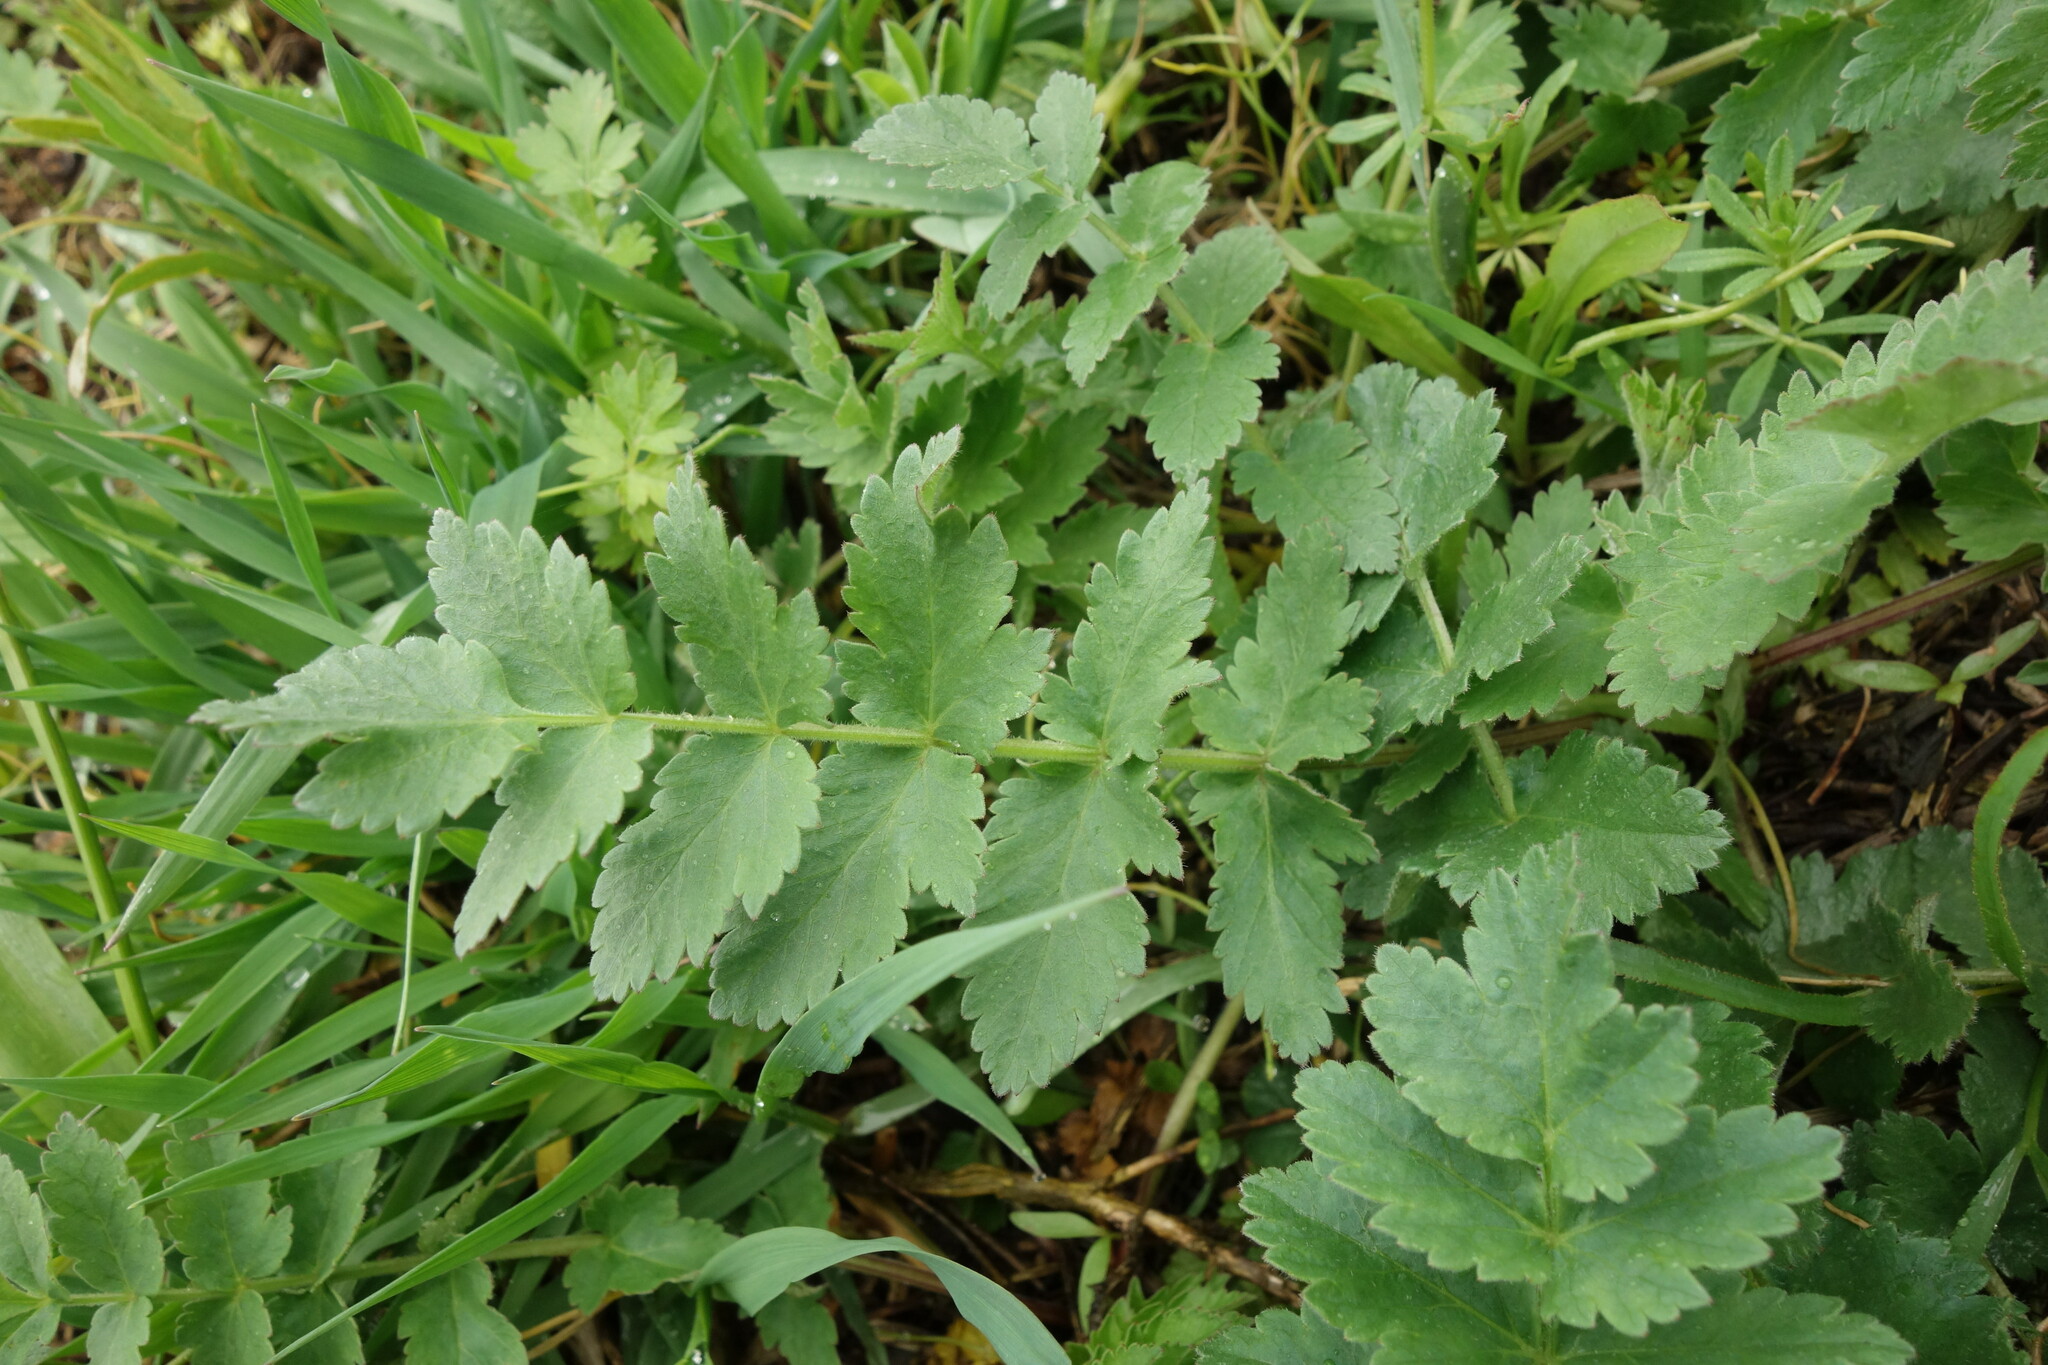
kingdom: Plantae
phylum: Tracheophyta
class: Magnoliopsida
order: Apiales
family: Apiaceae
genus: Pastinaca
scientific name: Pastinaca sativa
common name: Wild parsnip
